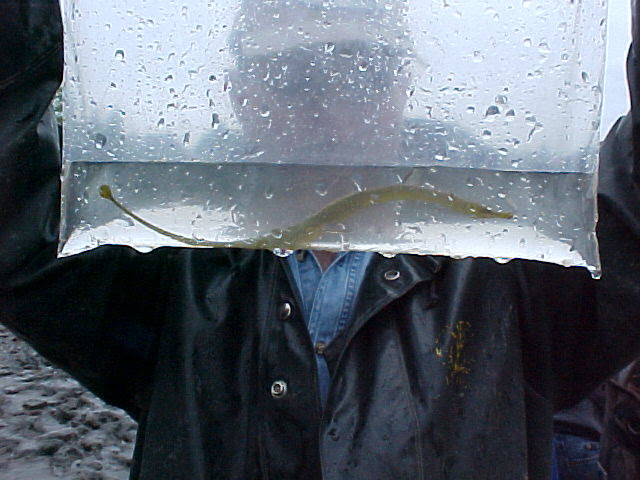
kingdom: Animalia
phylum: Chordata
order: Syngnathiformes
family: Syngnathidae
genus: Syngnathus
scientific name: Syngnathus californiensis
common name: Great pipefish
